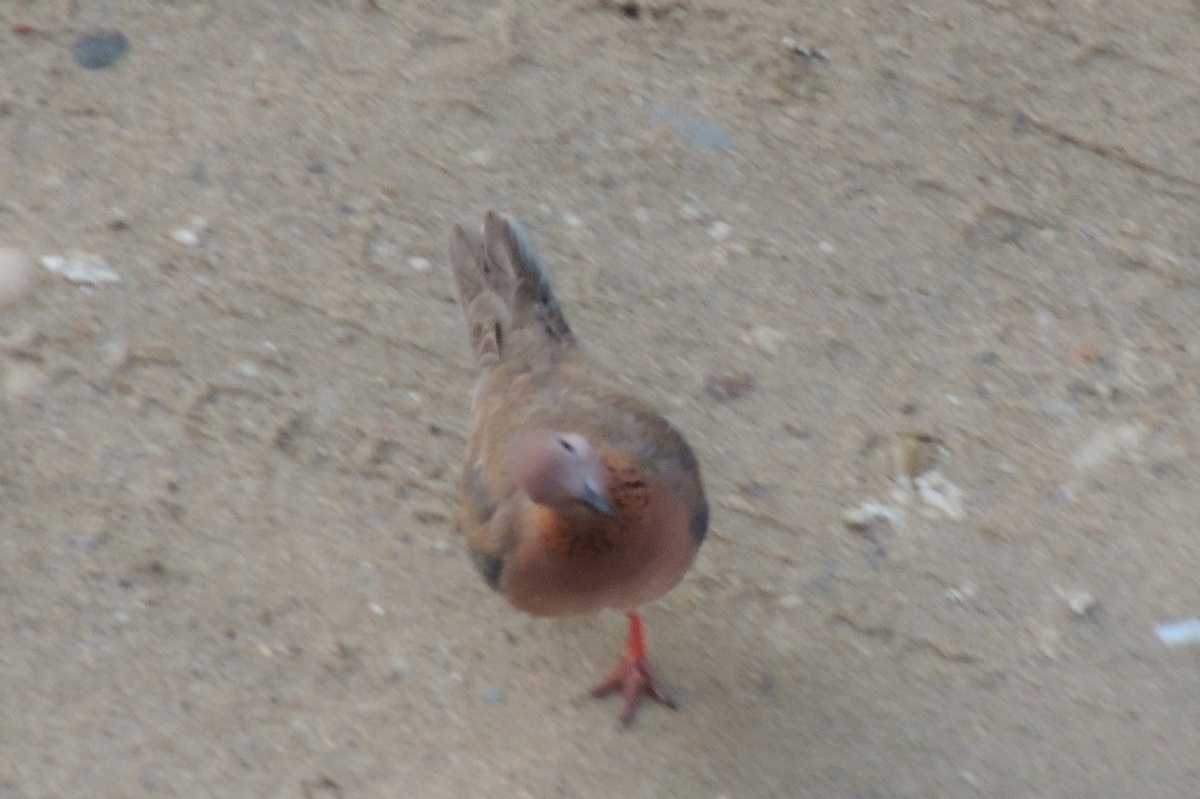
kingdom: Animalia
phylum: Chordata
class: Aves
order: Columbiformes
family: Columbidae
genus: Spilopelia
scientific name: Spilopelia senegalensis
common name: Laughing dove
